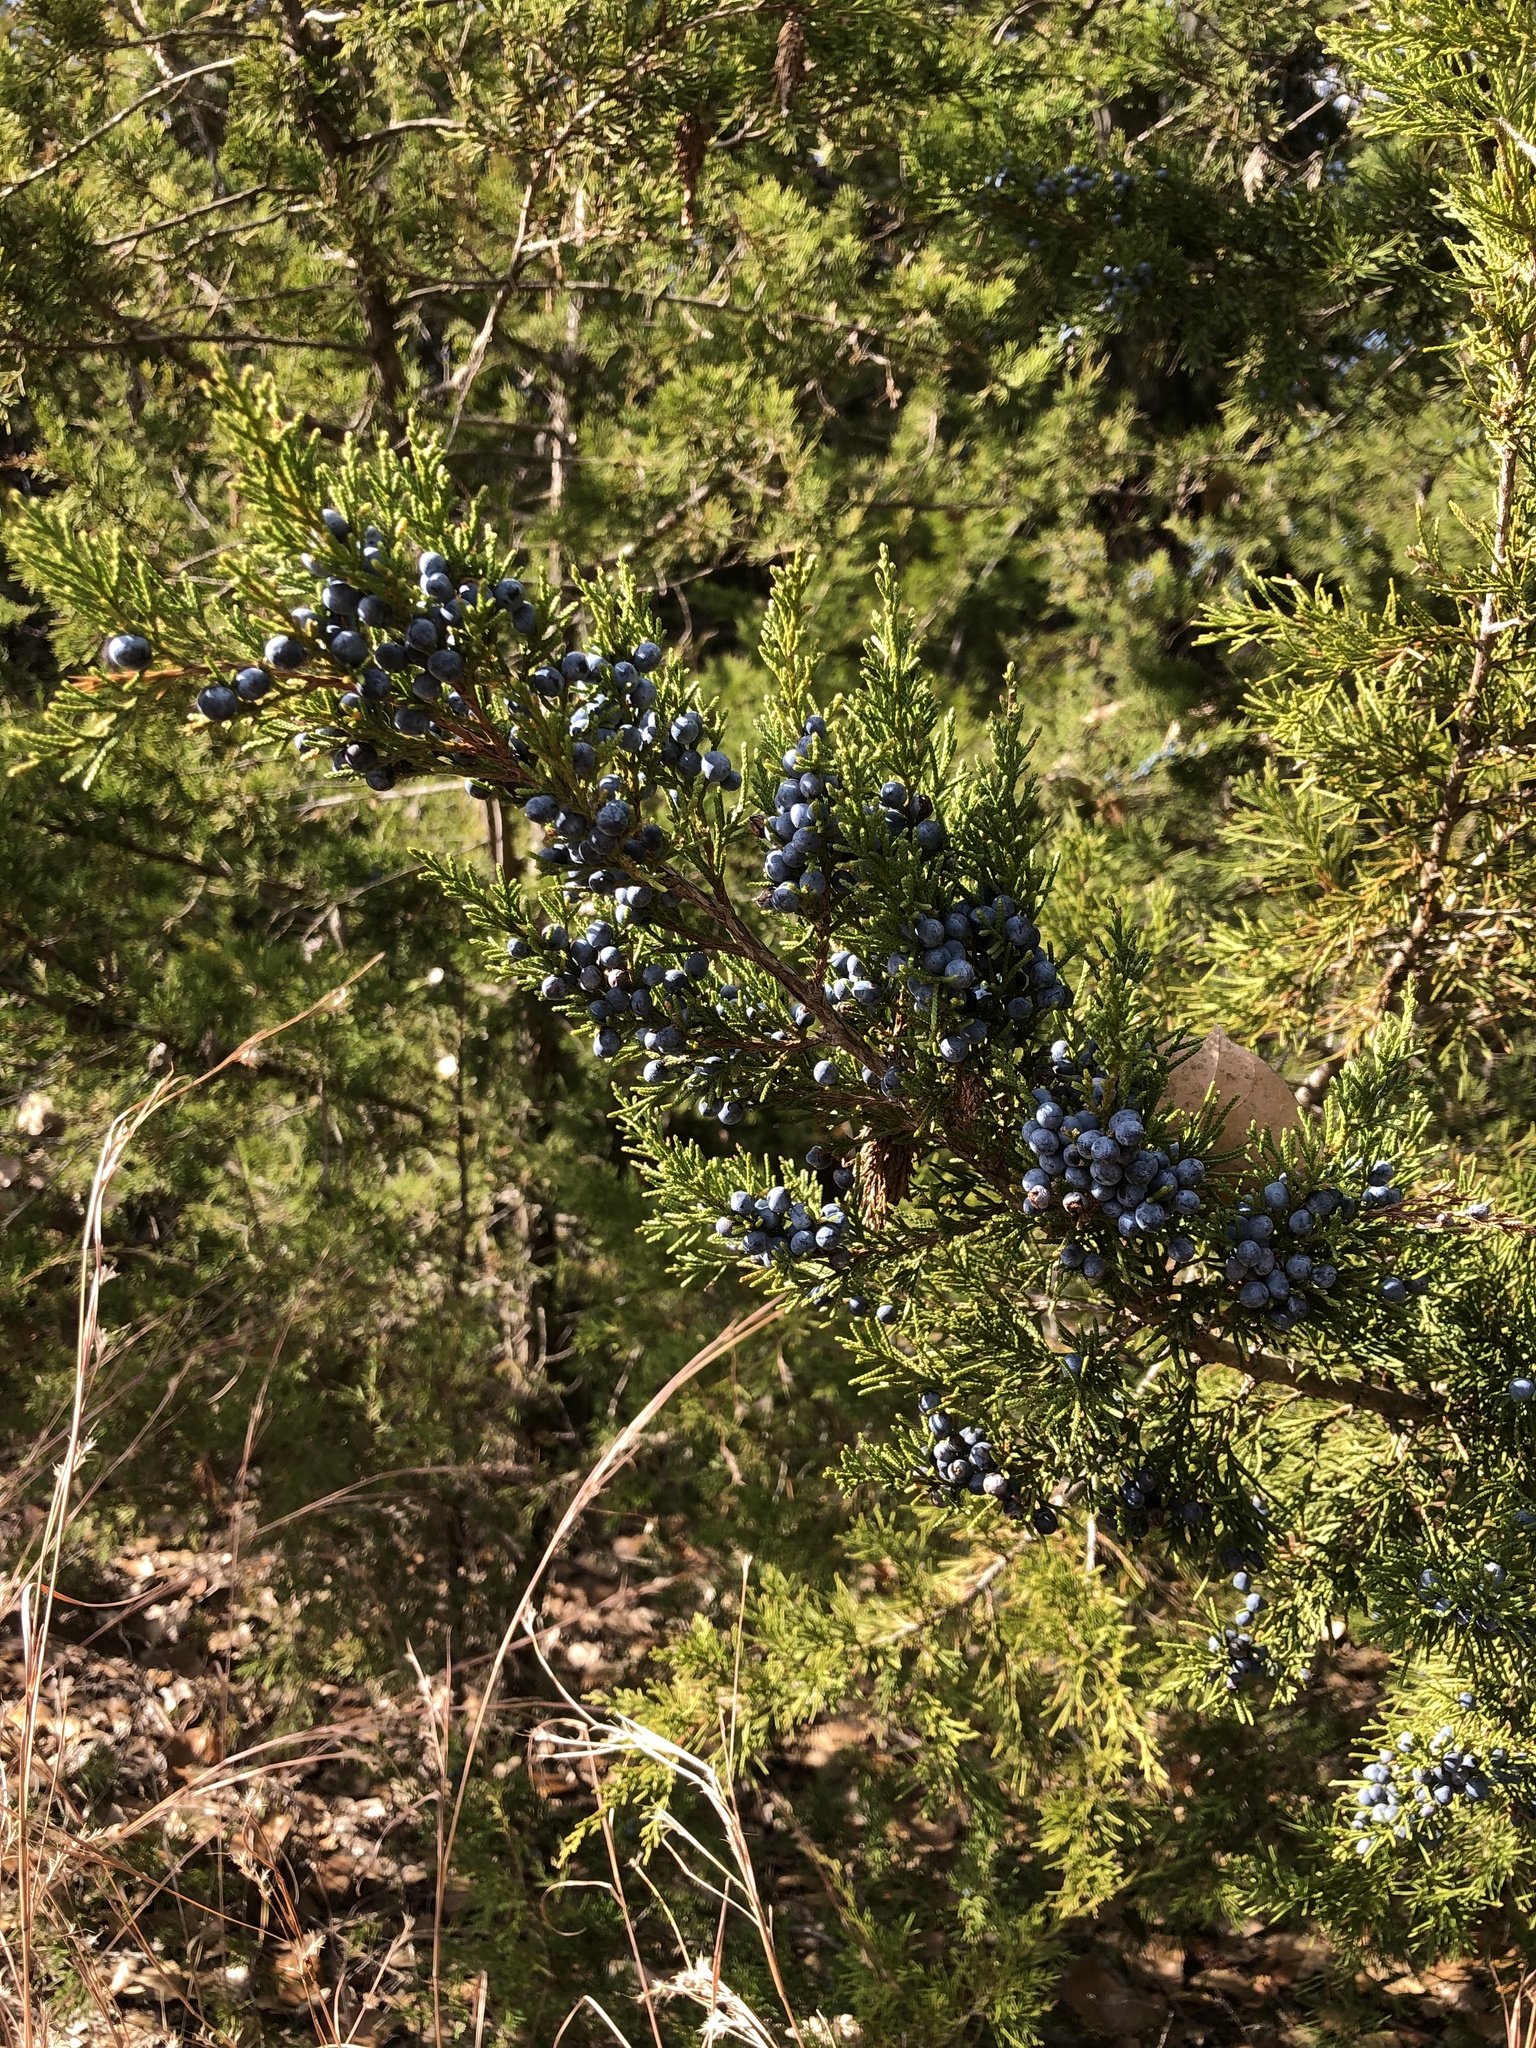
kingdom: Plantae
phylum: Tracheophyta
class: Pinopsida
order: Pinales
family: Cupressaceae
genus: Juniperus
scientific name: Juniperus virginiana
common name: Red juniper
